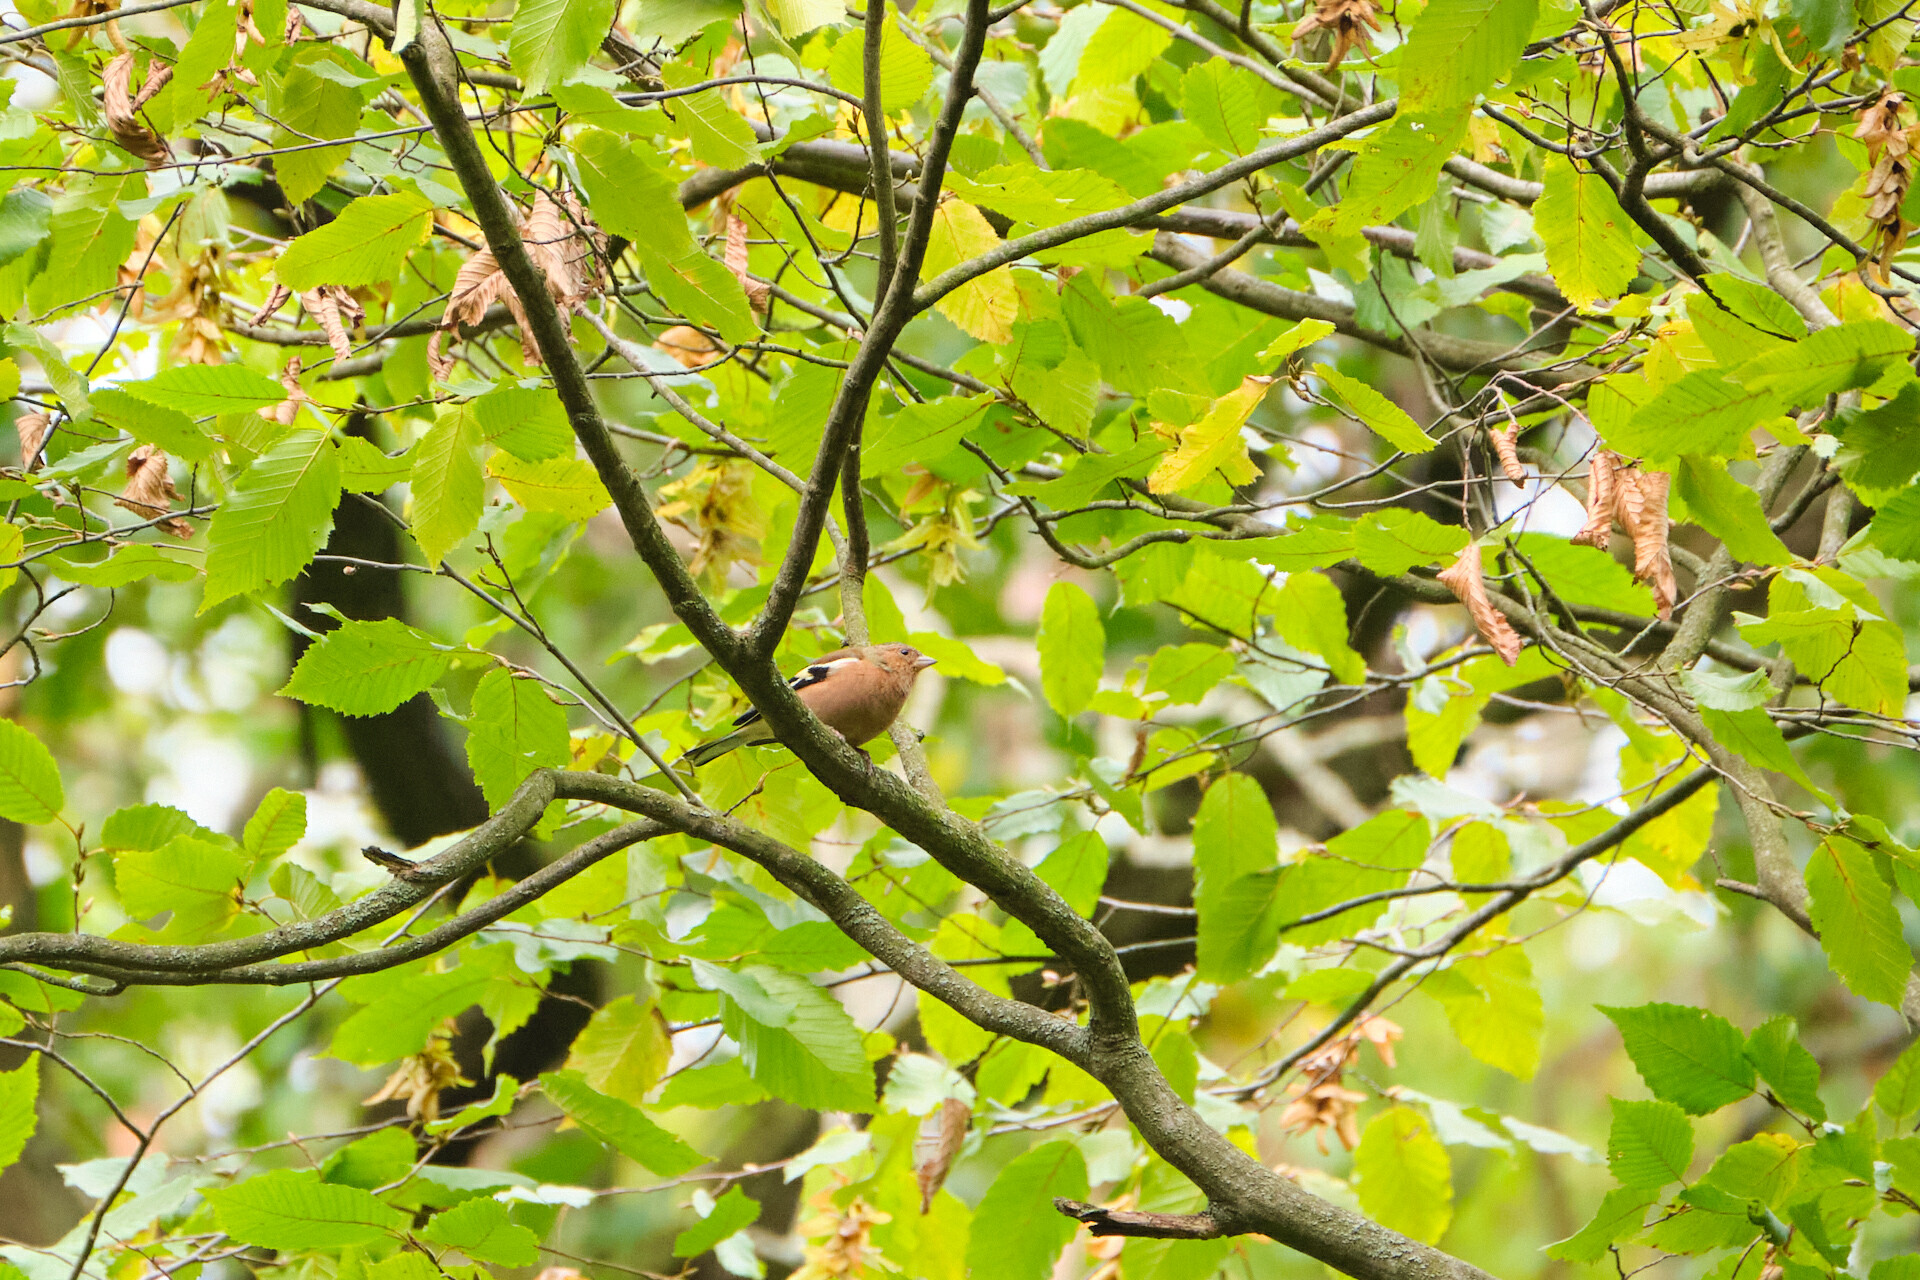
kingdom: Animalia
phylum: Chordata
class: Aves
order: Passeriformes
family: Fringillidae
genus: Fringilla
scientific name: Fringilla coelebs
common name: Common chaffinch
